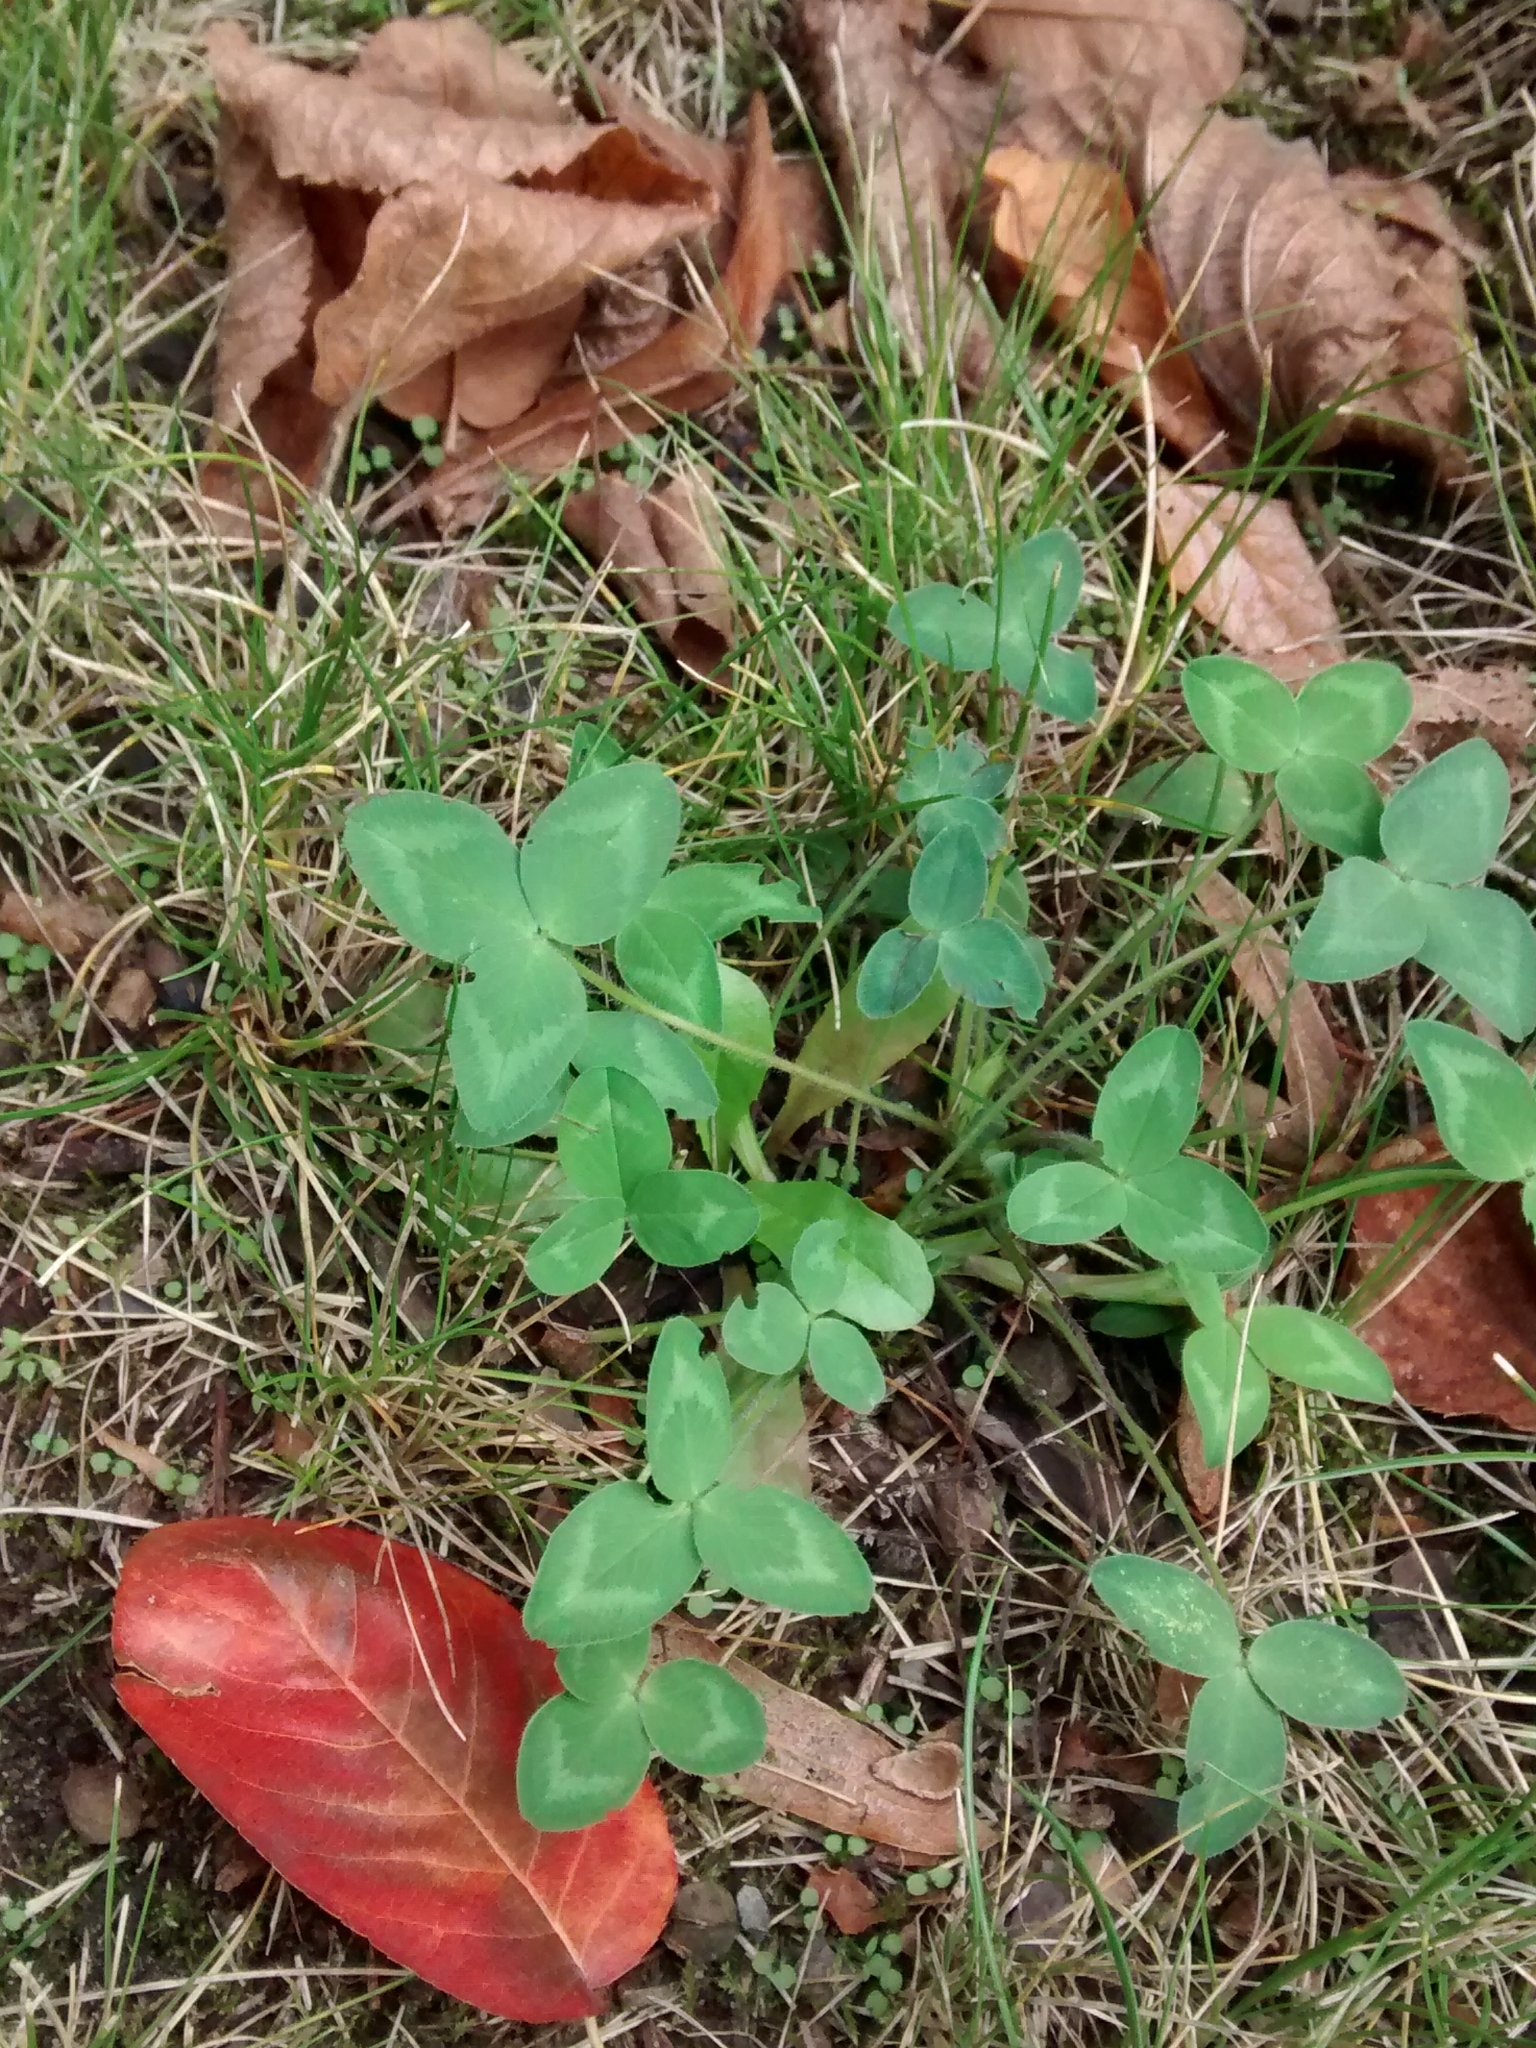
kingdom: Plantae
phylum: Tracheophyta
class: Magnoliopsida
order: Fabales
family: Fabaceae
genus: Trifolium
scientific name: Trifolium pratense
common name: Red clover
